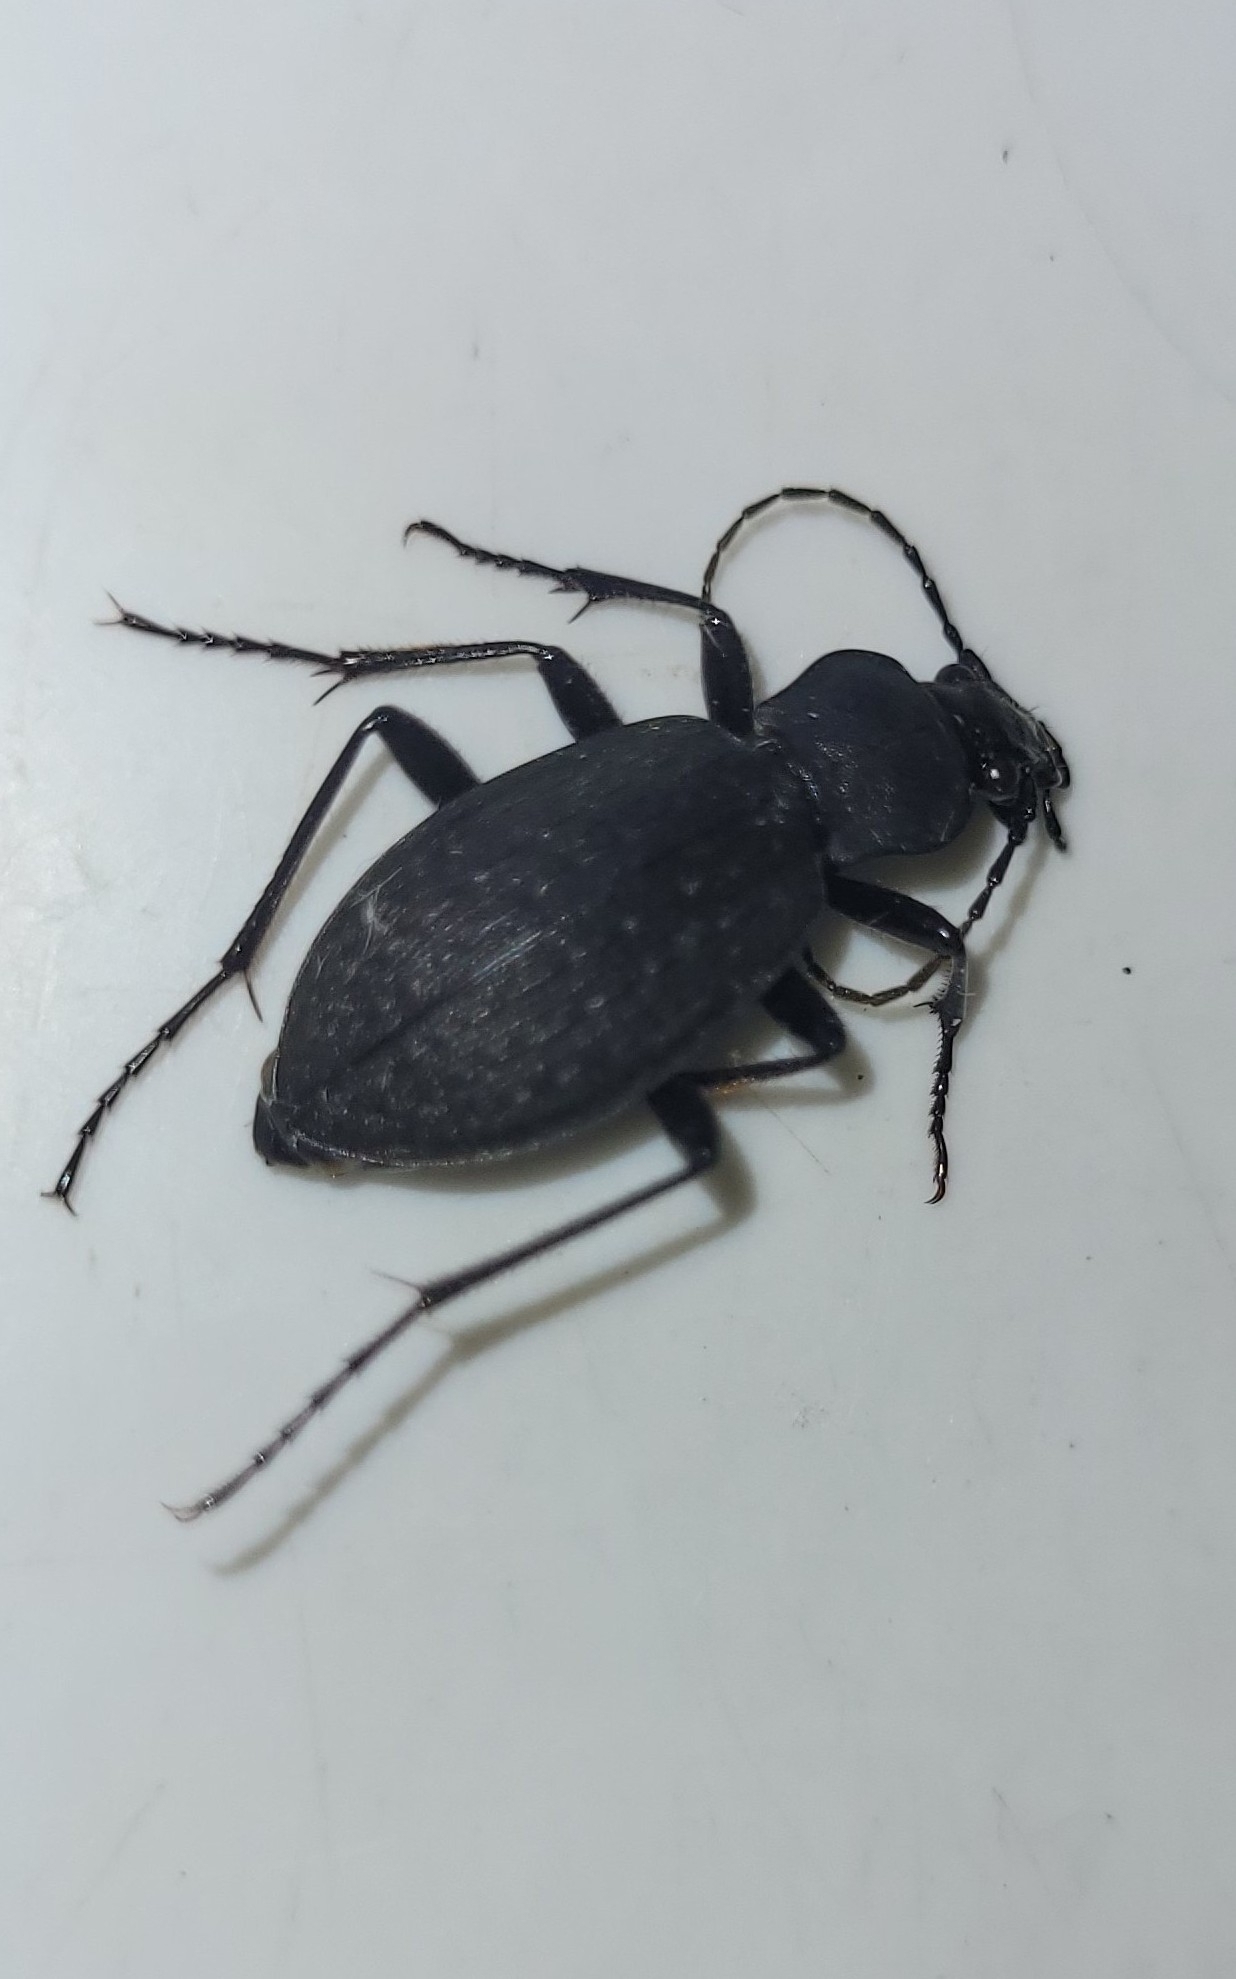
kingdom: Animalia
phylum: Arthropoda
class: Insecta
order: Coleoptera
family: Carabidae
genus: Carabus
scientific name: Carabus opaculus
